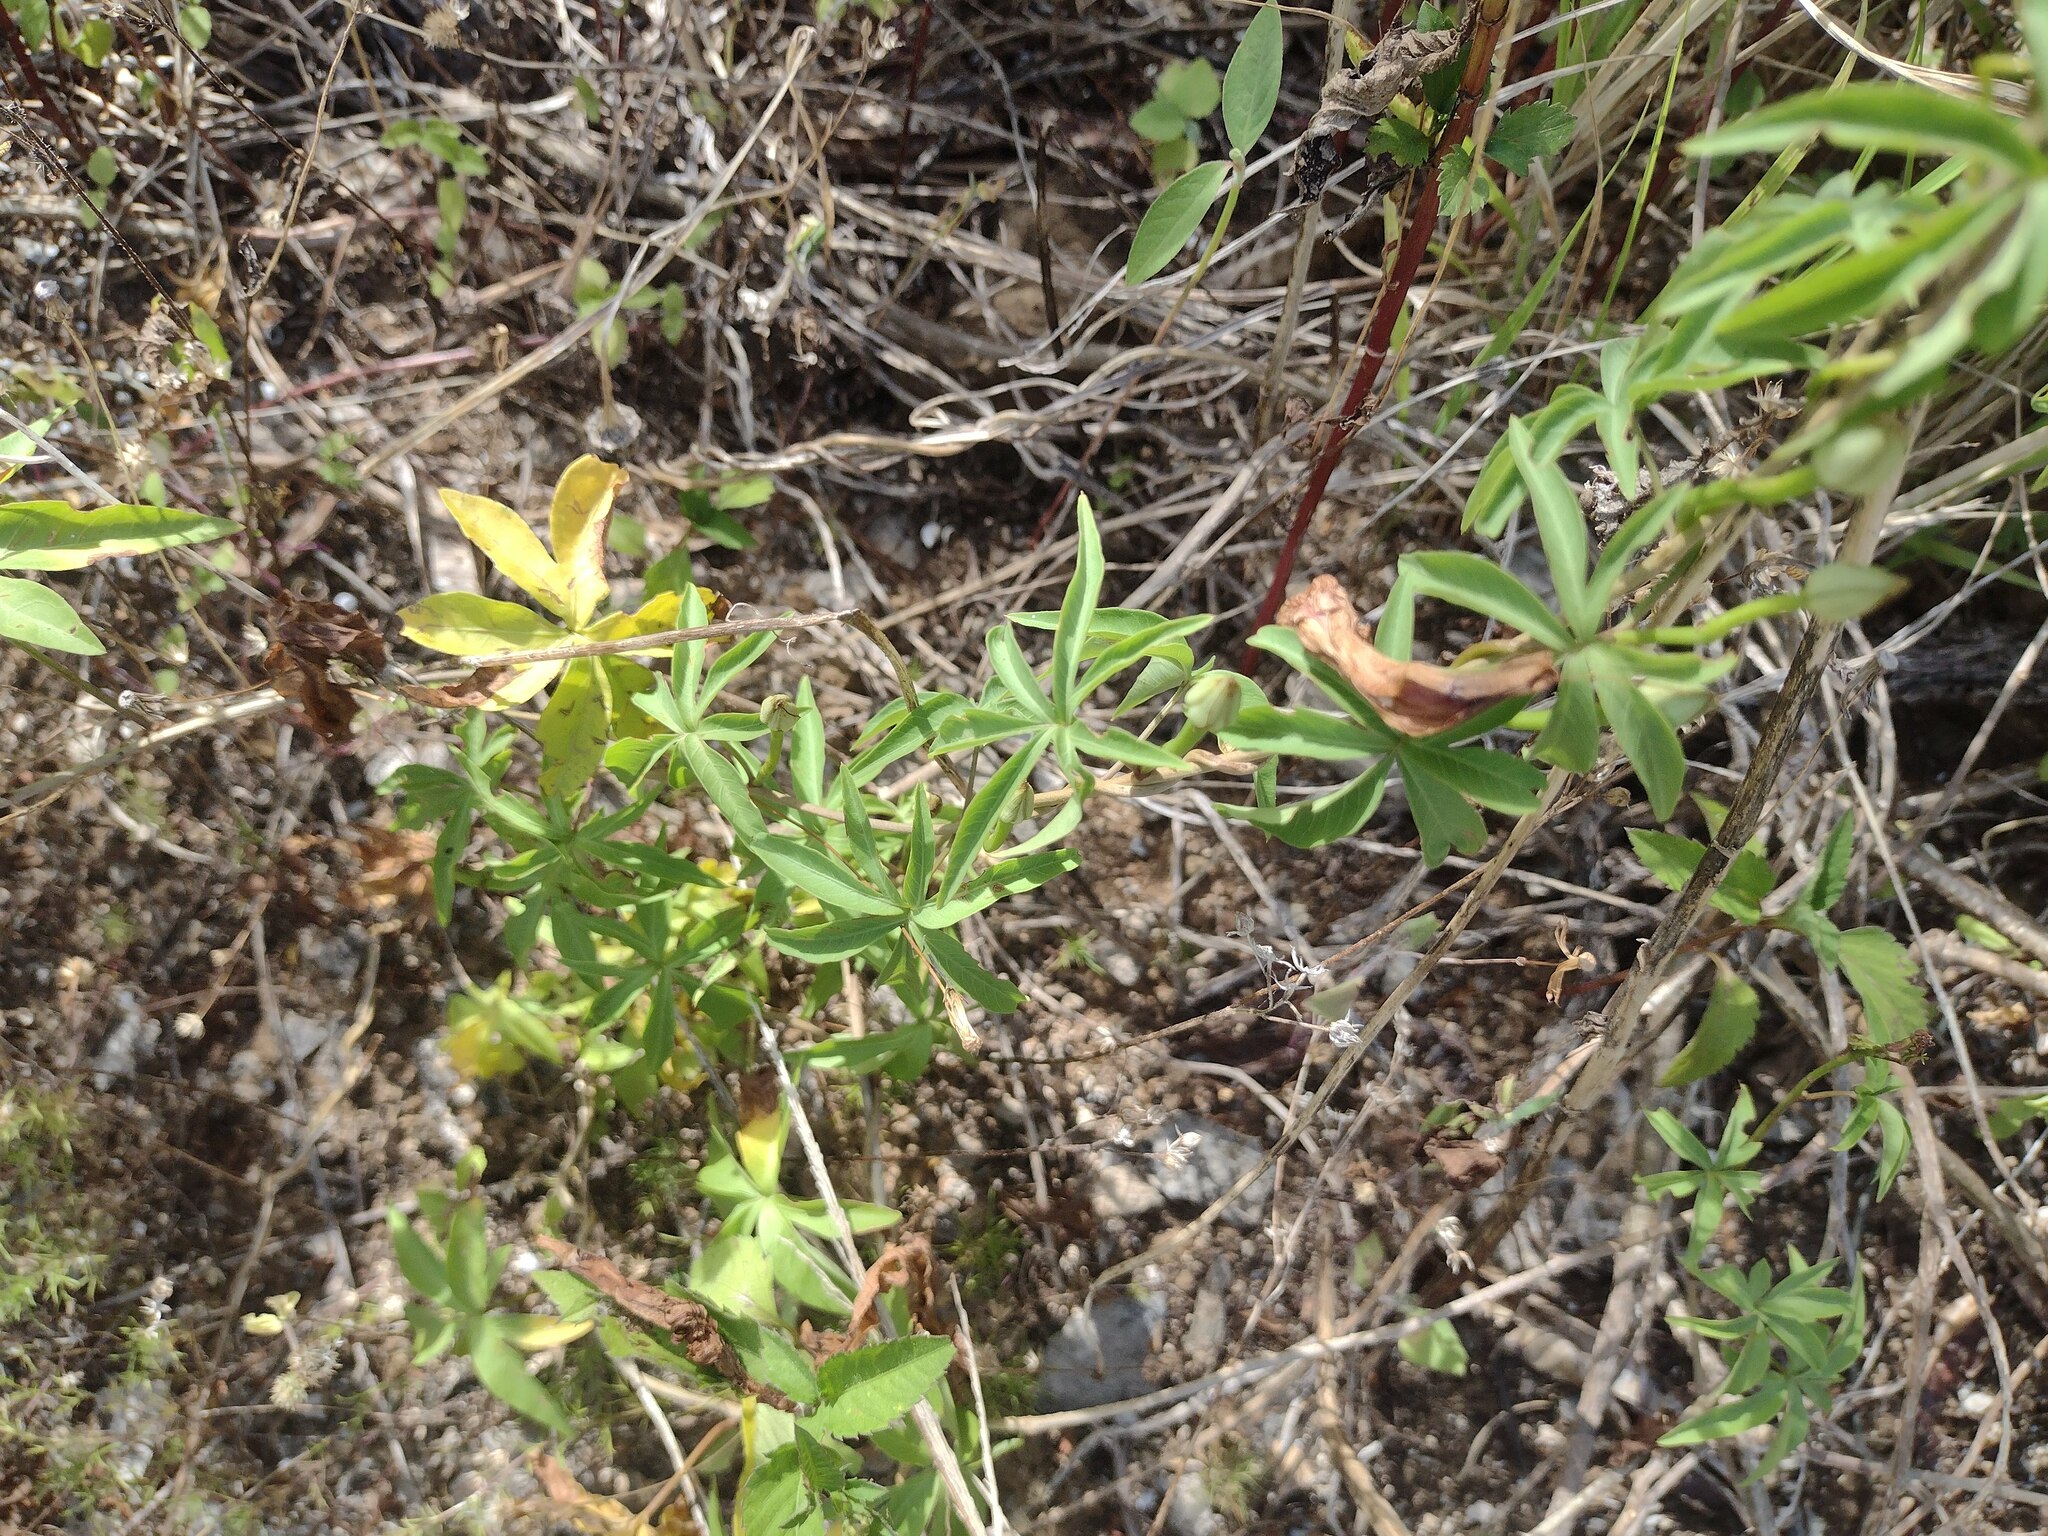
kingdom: Plantae
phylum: Tracheophyta
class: Magnoliopsida
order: Solanales
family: Convolvulaceae
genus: Ipomoea
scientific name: Ipomoea cairica
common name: Mile a minute vine
